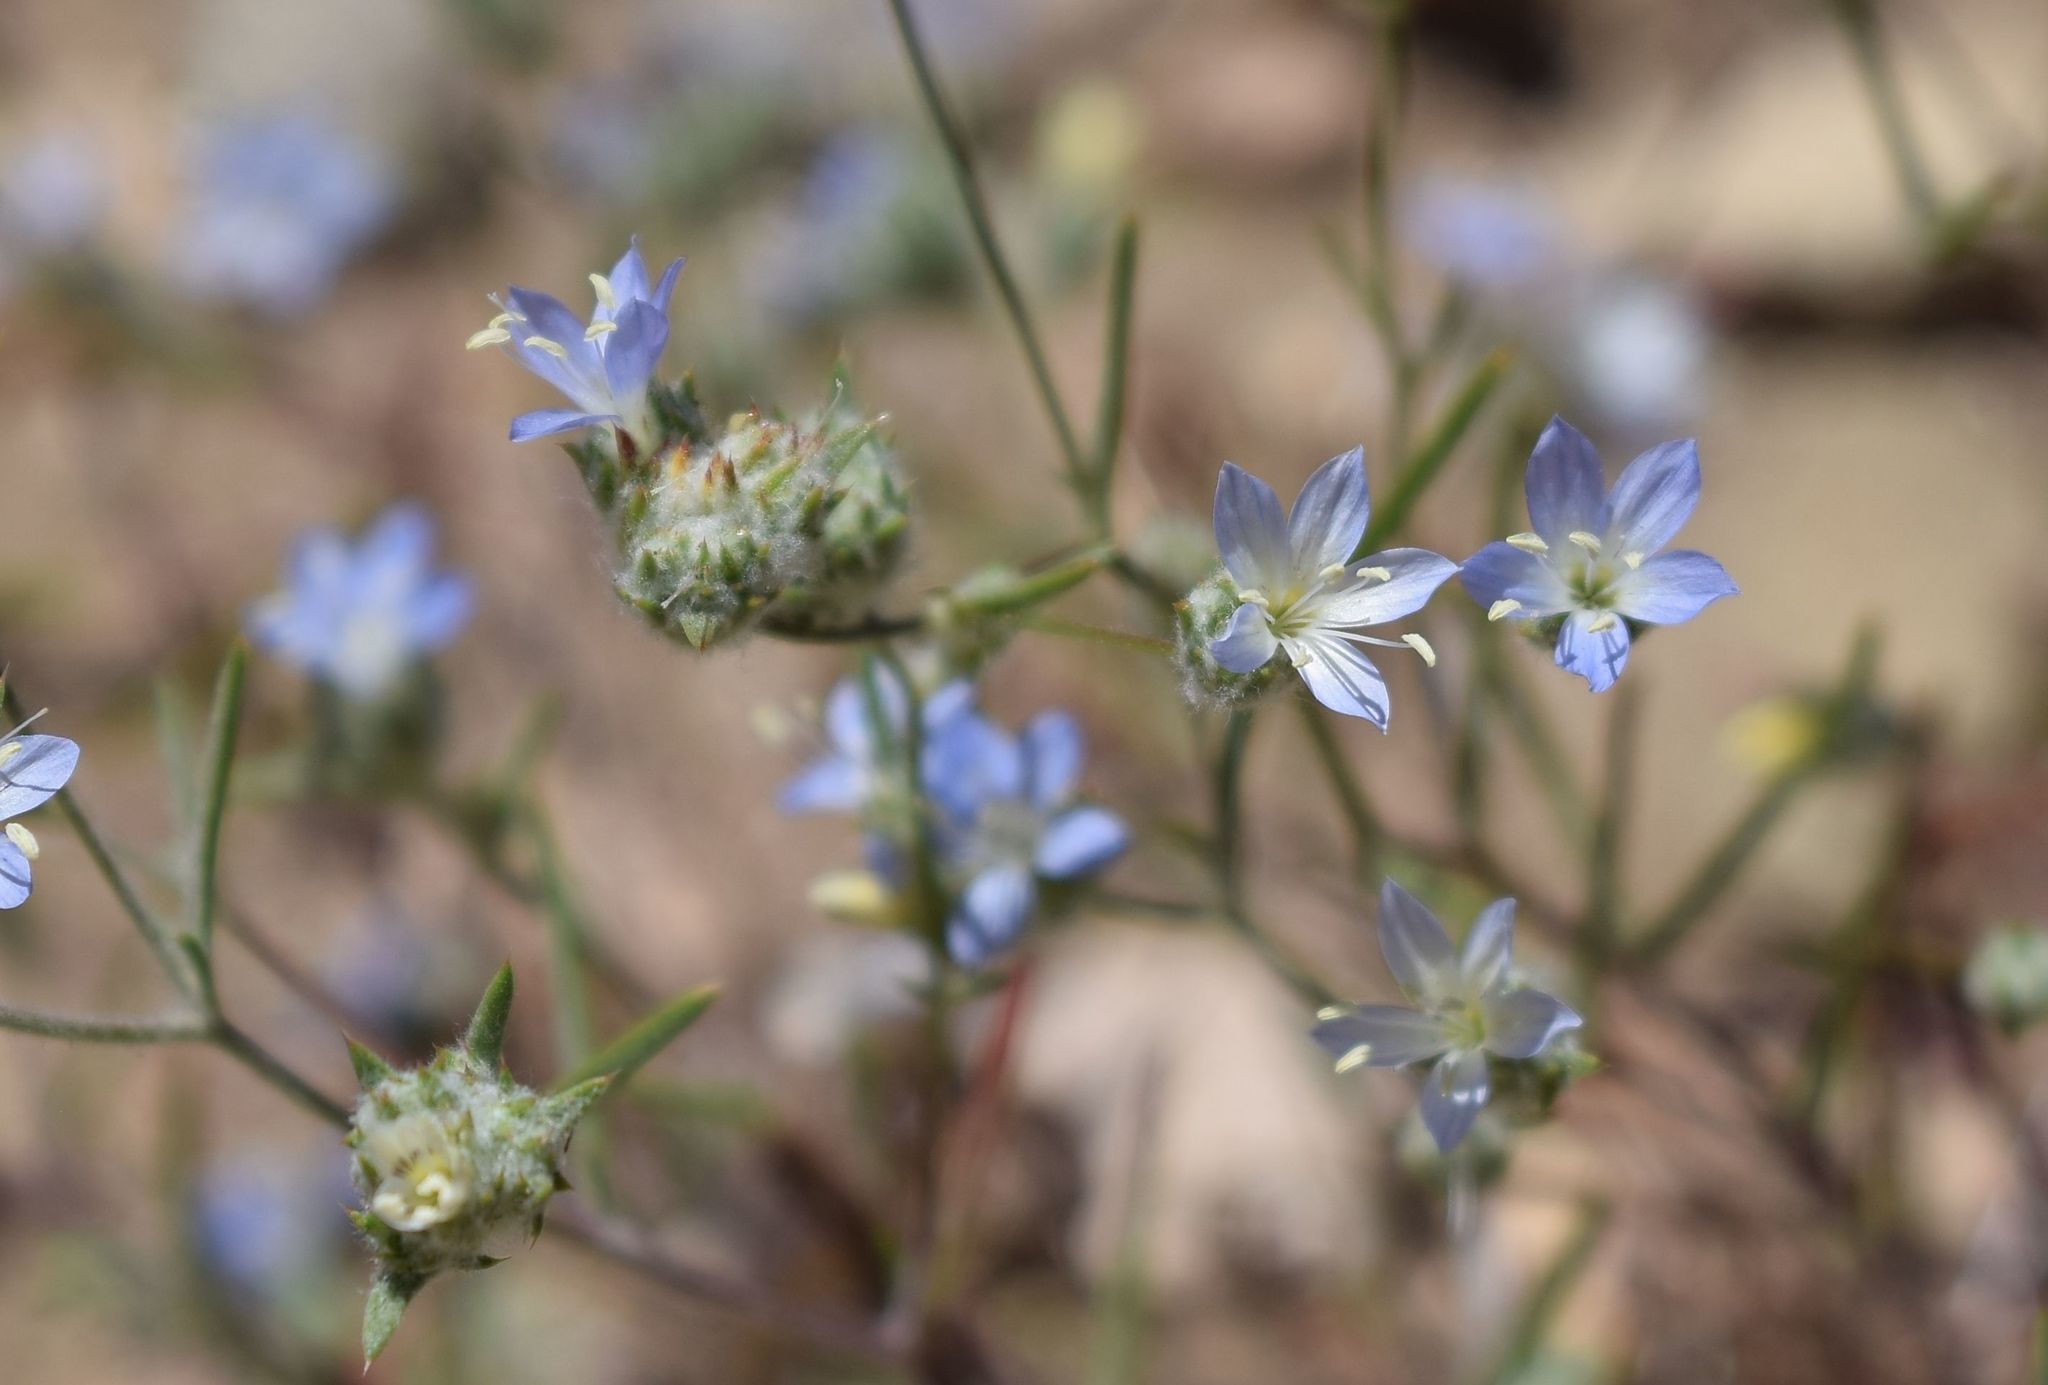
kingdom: Plantae
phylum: Tracheophyta
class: Magnoliopsida
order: Ericales
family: Polemoniaceae
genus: Eriastrum
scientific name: Eriastrum sapphirinum
